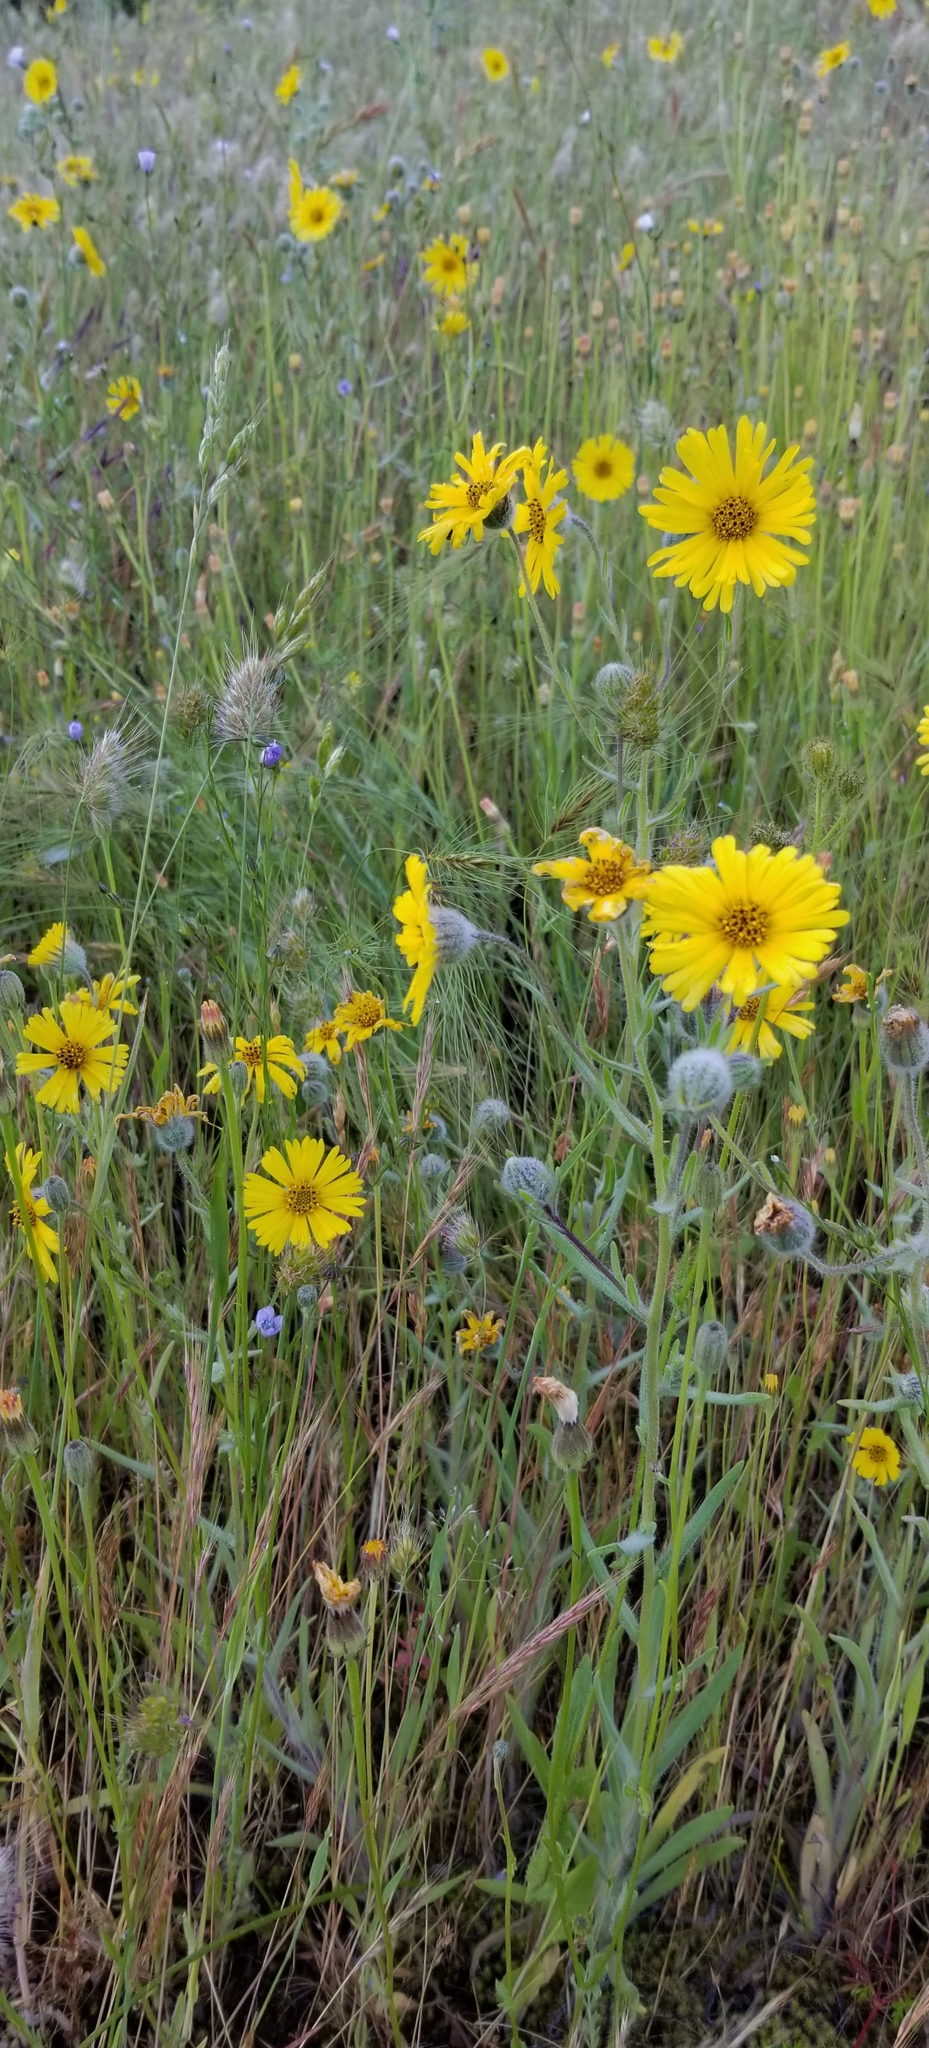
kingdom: Plantae
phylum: Tracheophyta
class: Magnoliopsida
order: Asterales
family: Asteraceae
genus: Madia
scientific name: Madia elegans
